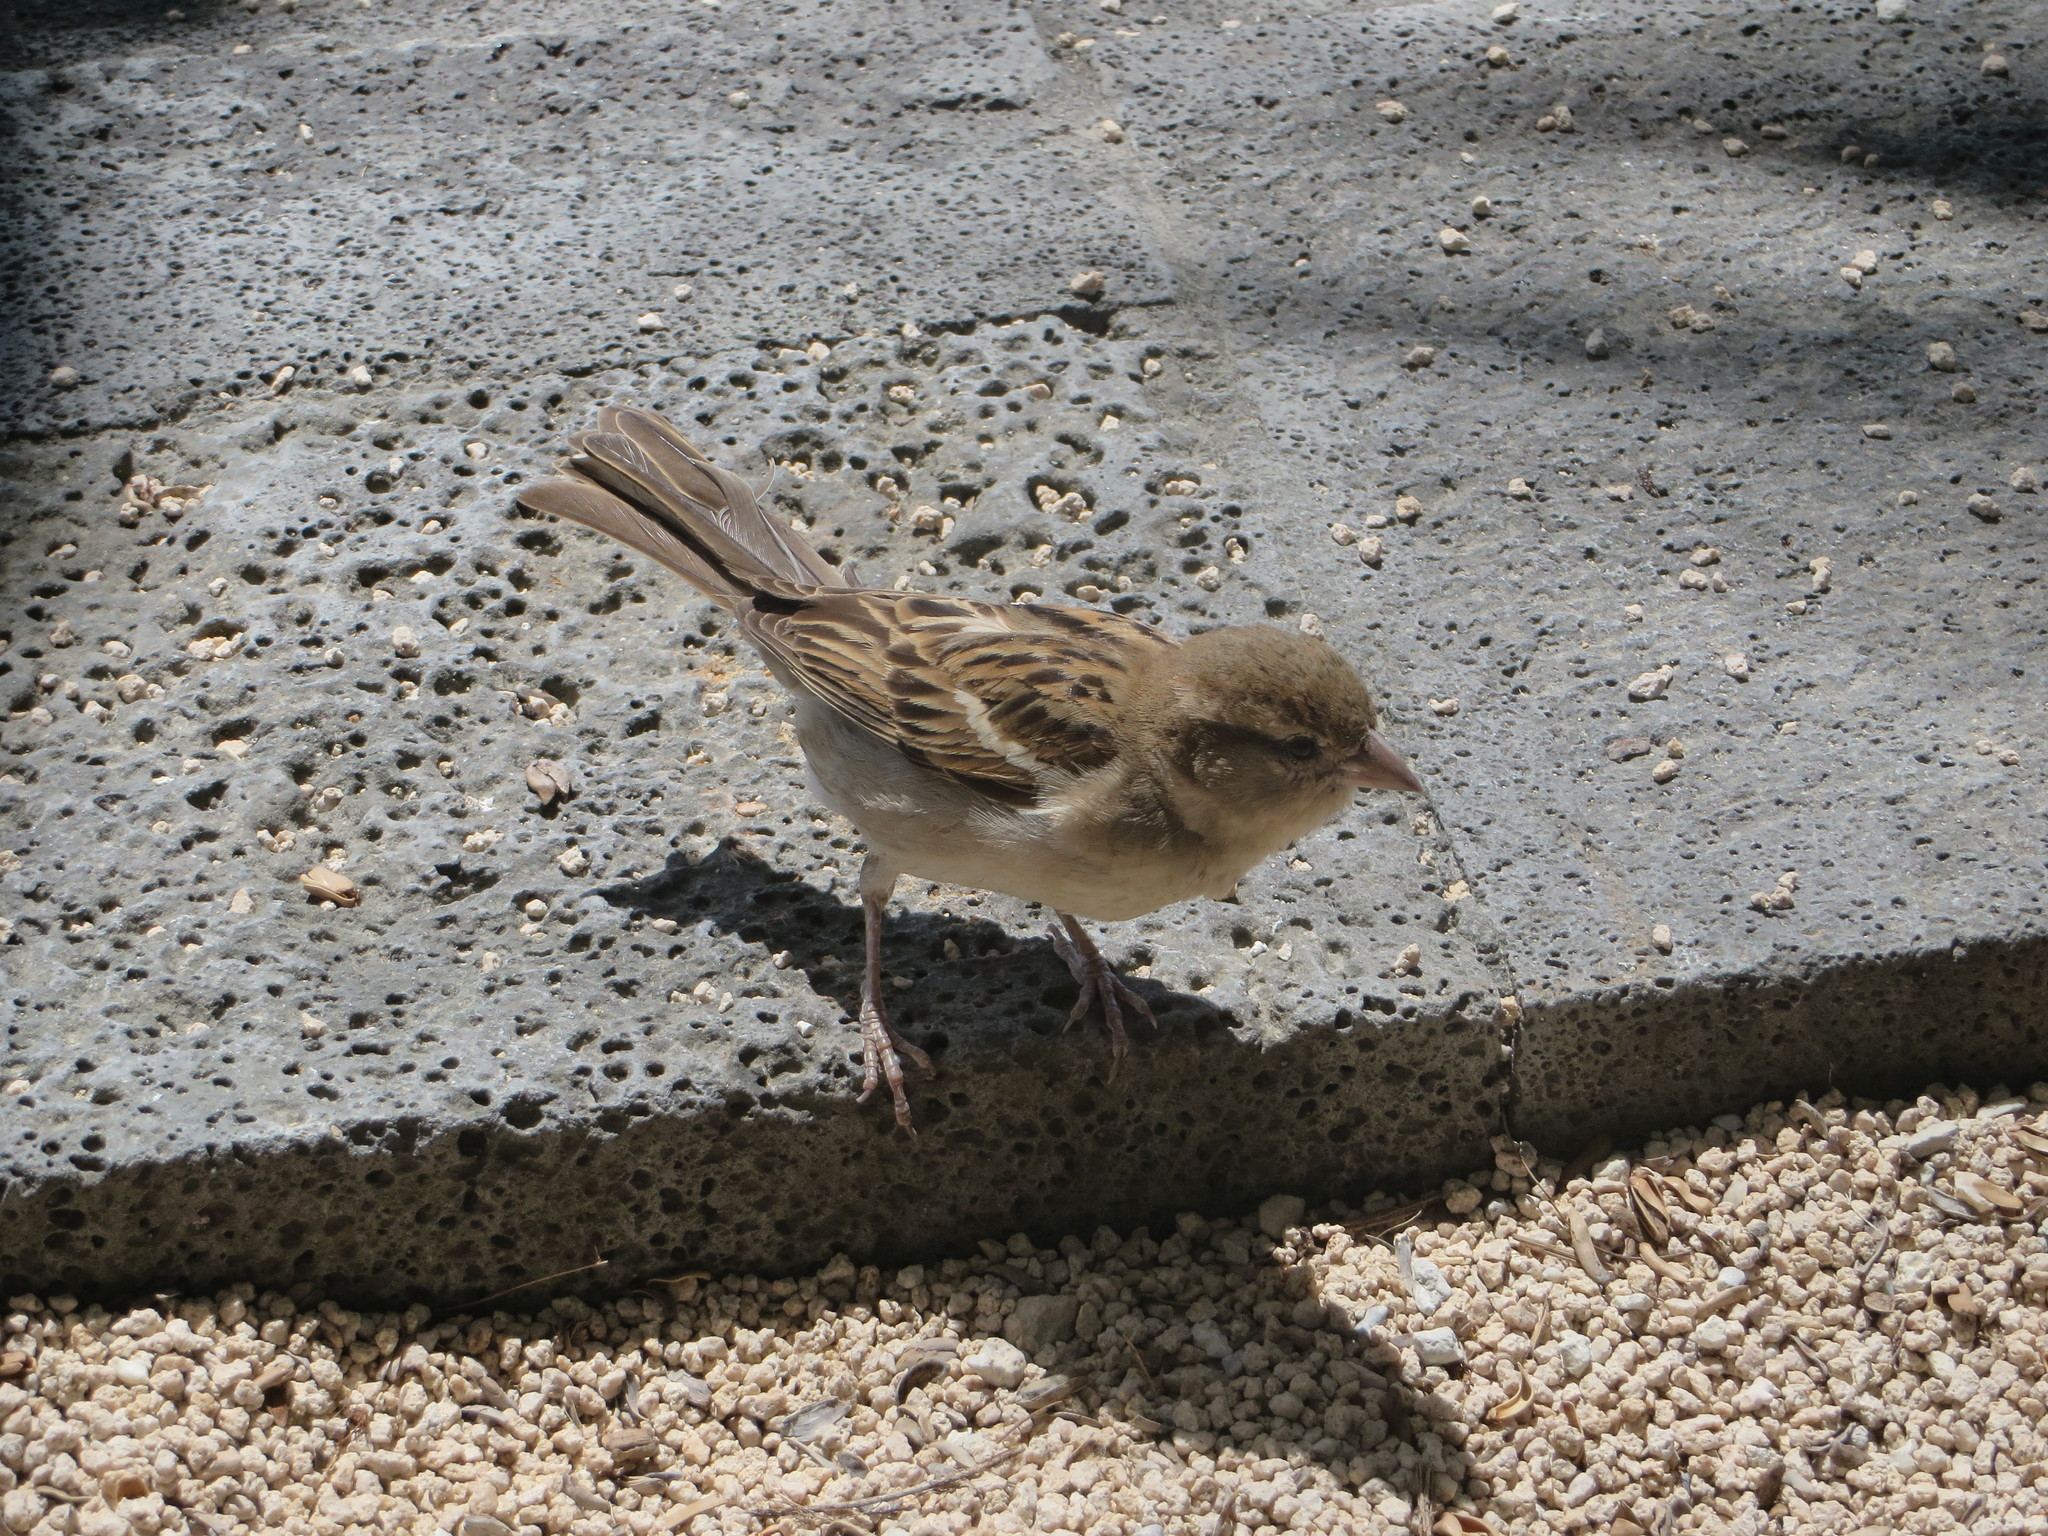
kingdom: Animalia
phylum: Chordata
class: Aves
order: Passeriformes
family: Passeridae
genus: Passer
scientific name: Passer domesticus
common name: House sparrow
